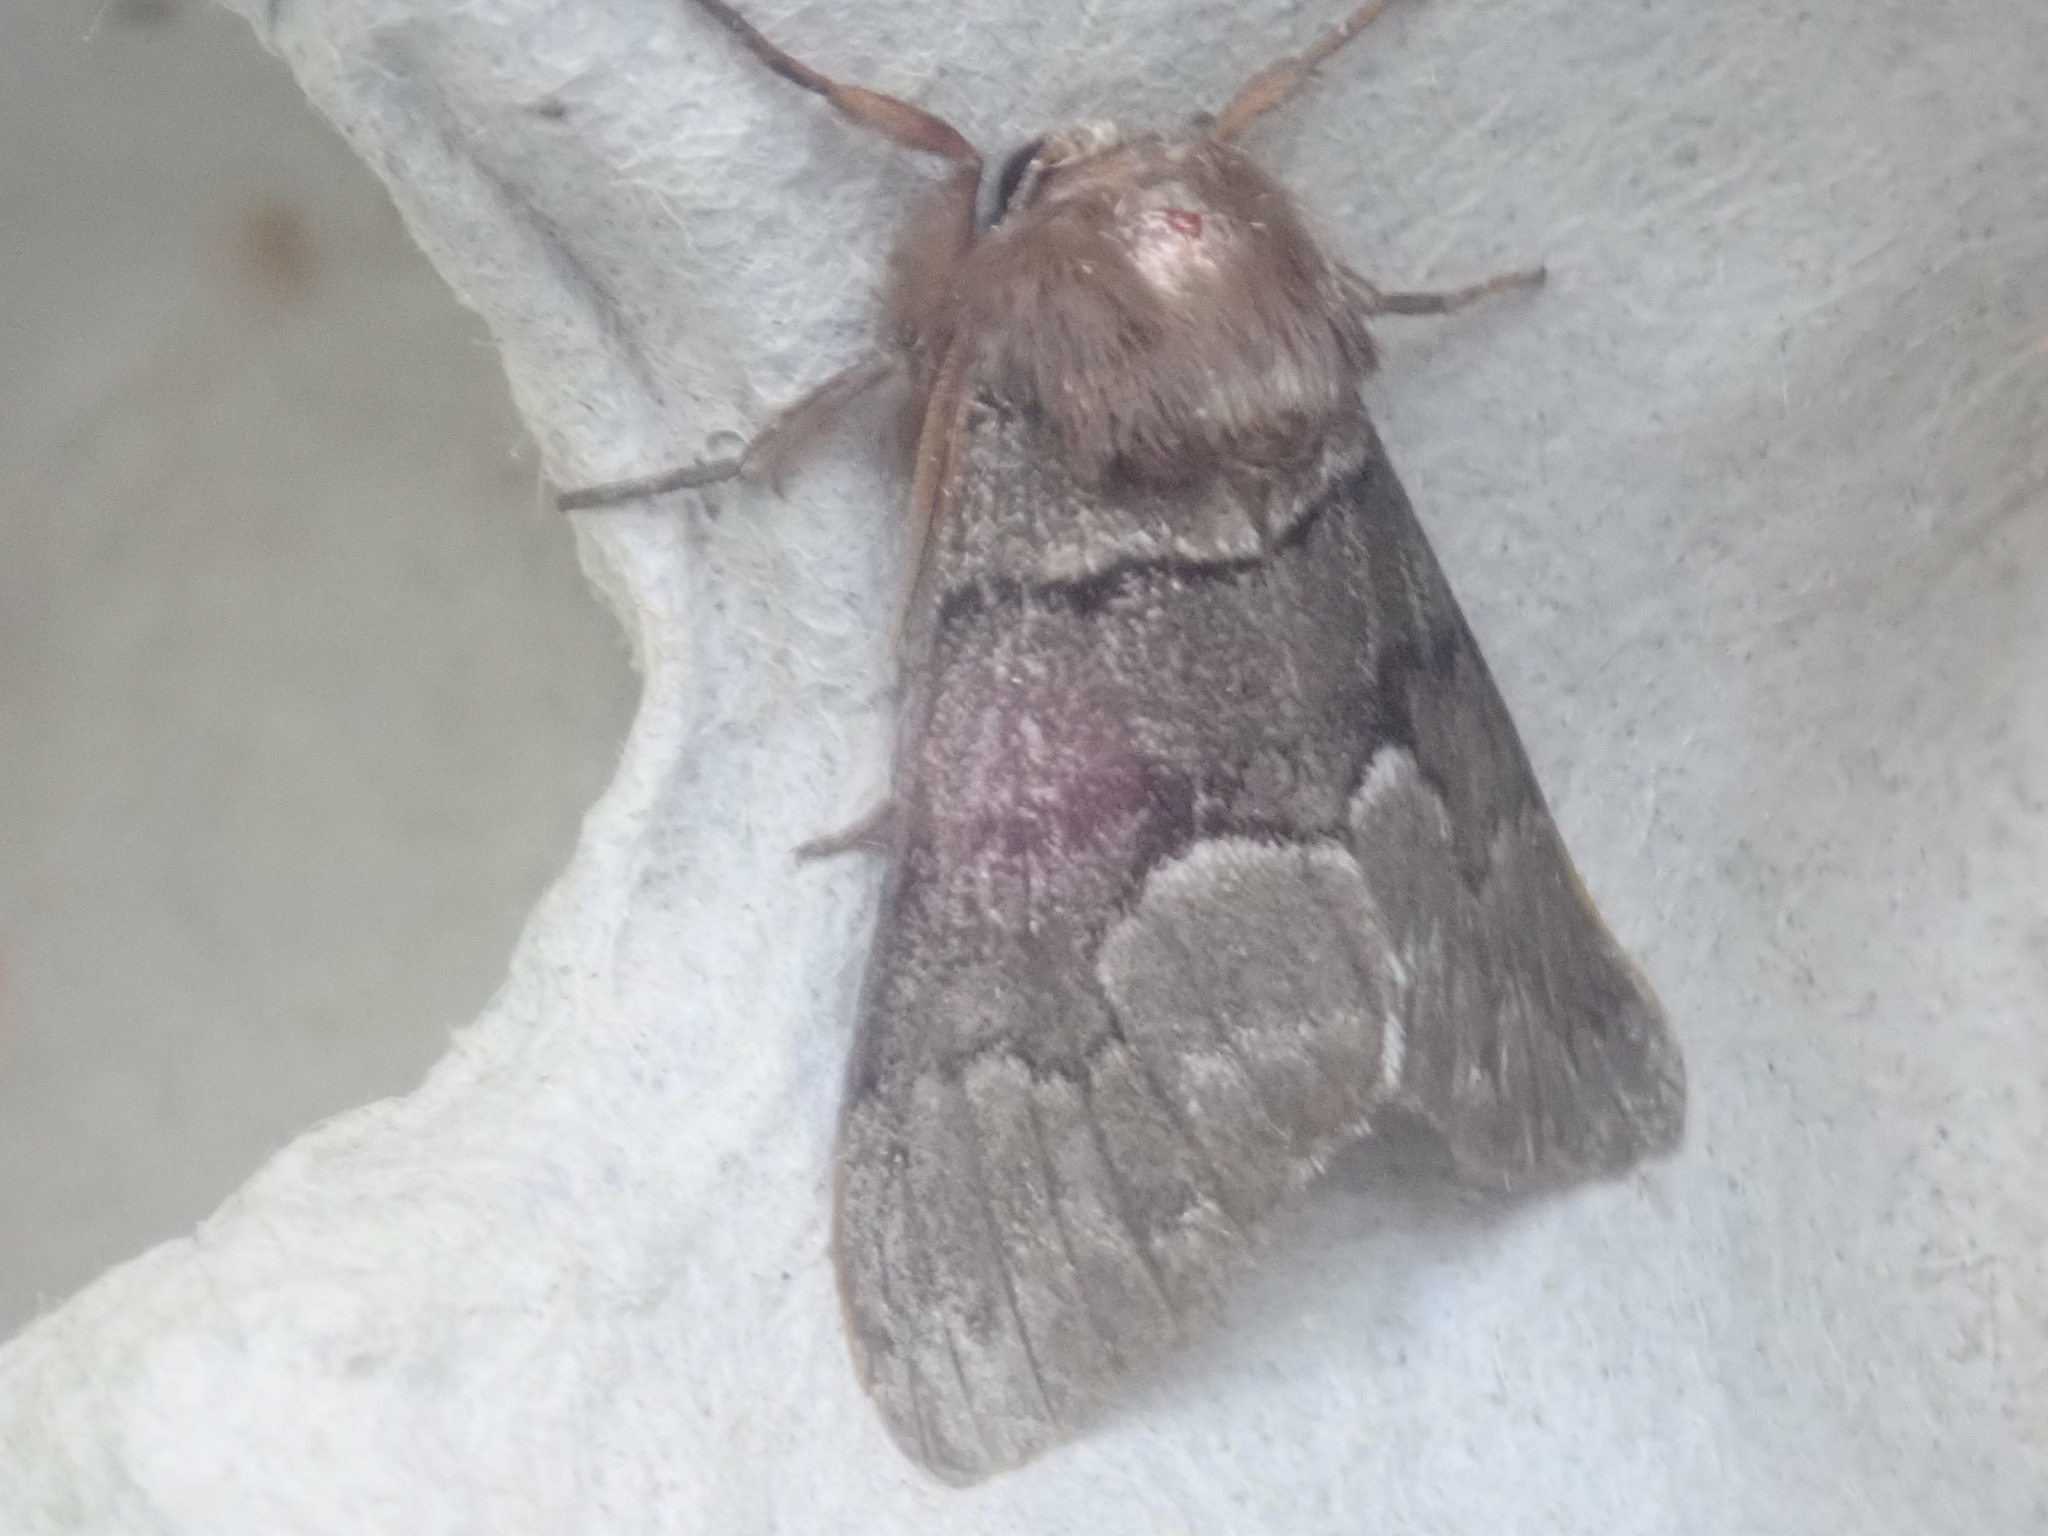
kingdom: Animalia
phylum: Arthropoda
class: Insecta
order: Lepidoptera
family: Noctuidae
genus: Panthea
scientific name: Panthea furcilla
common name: Eastern panthea moth
